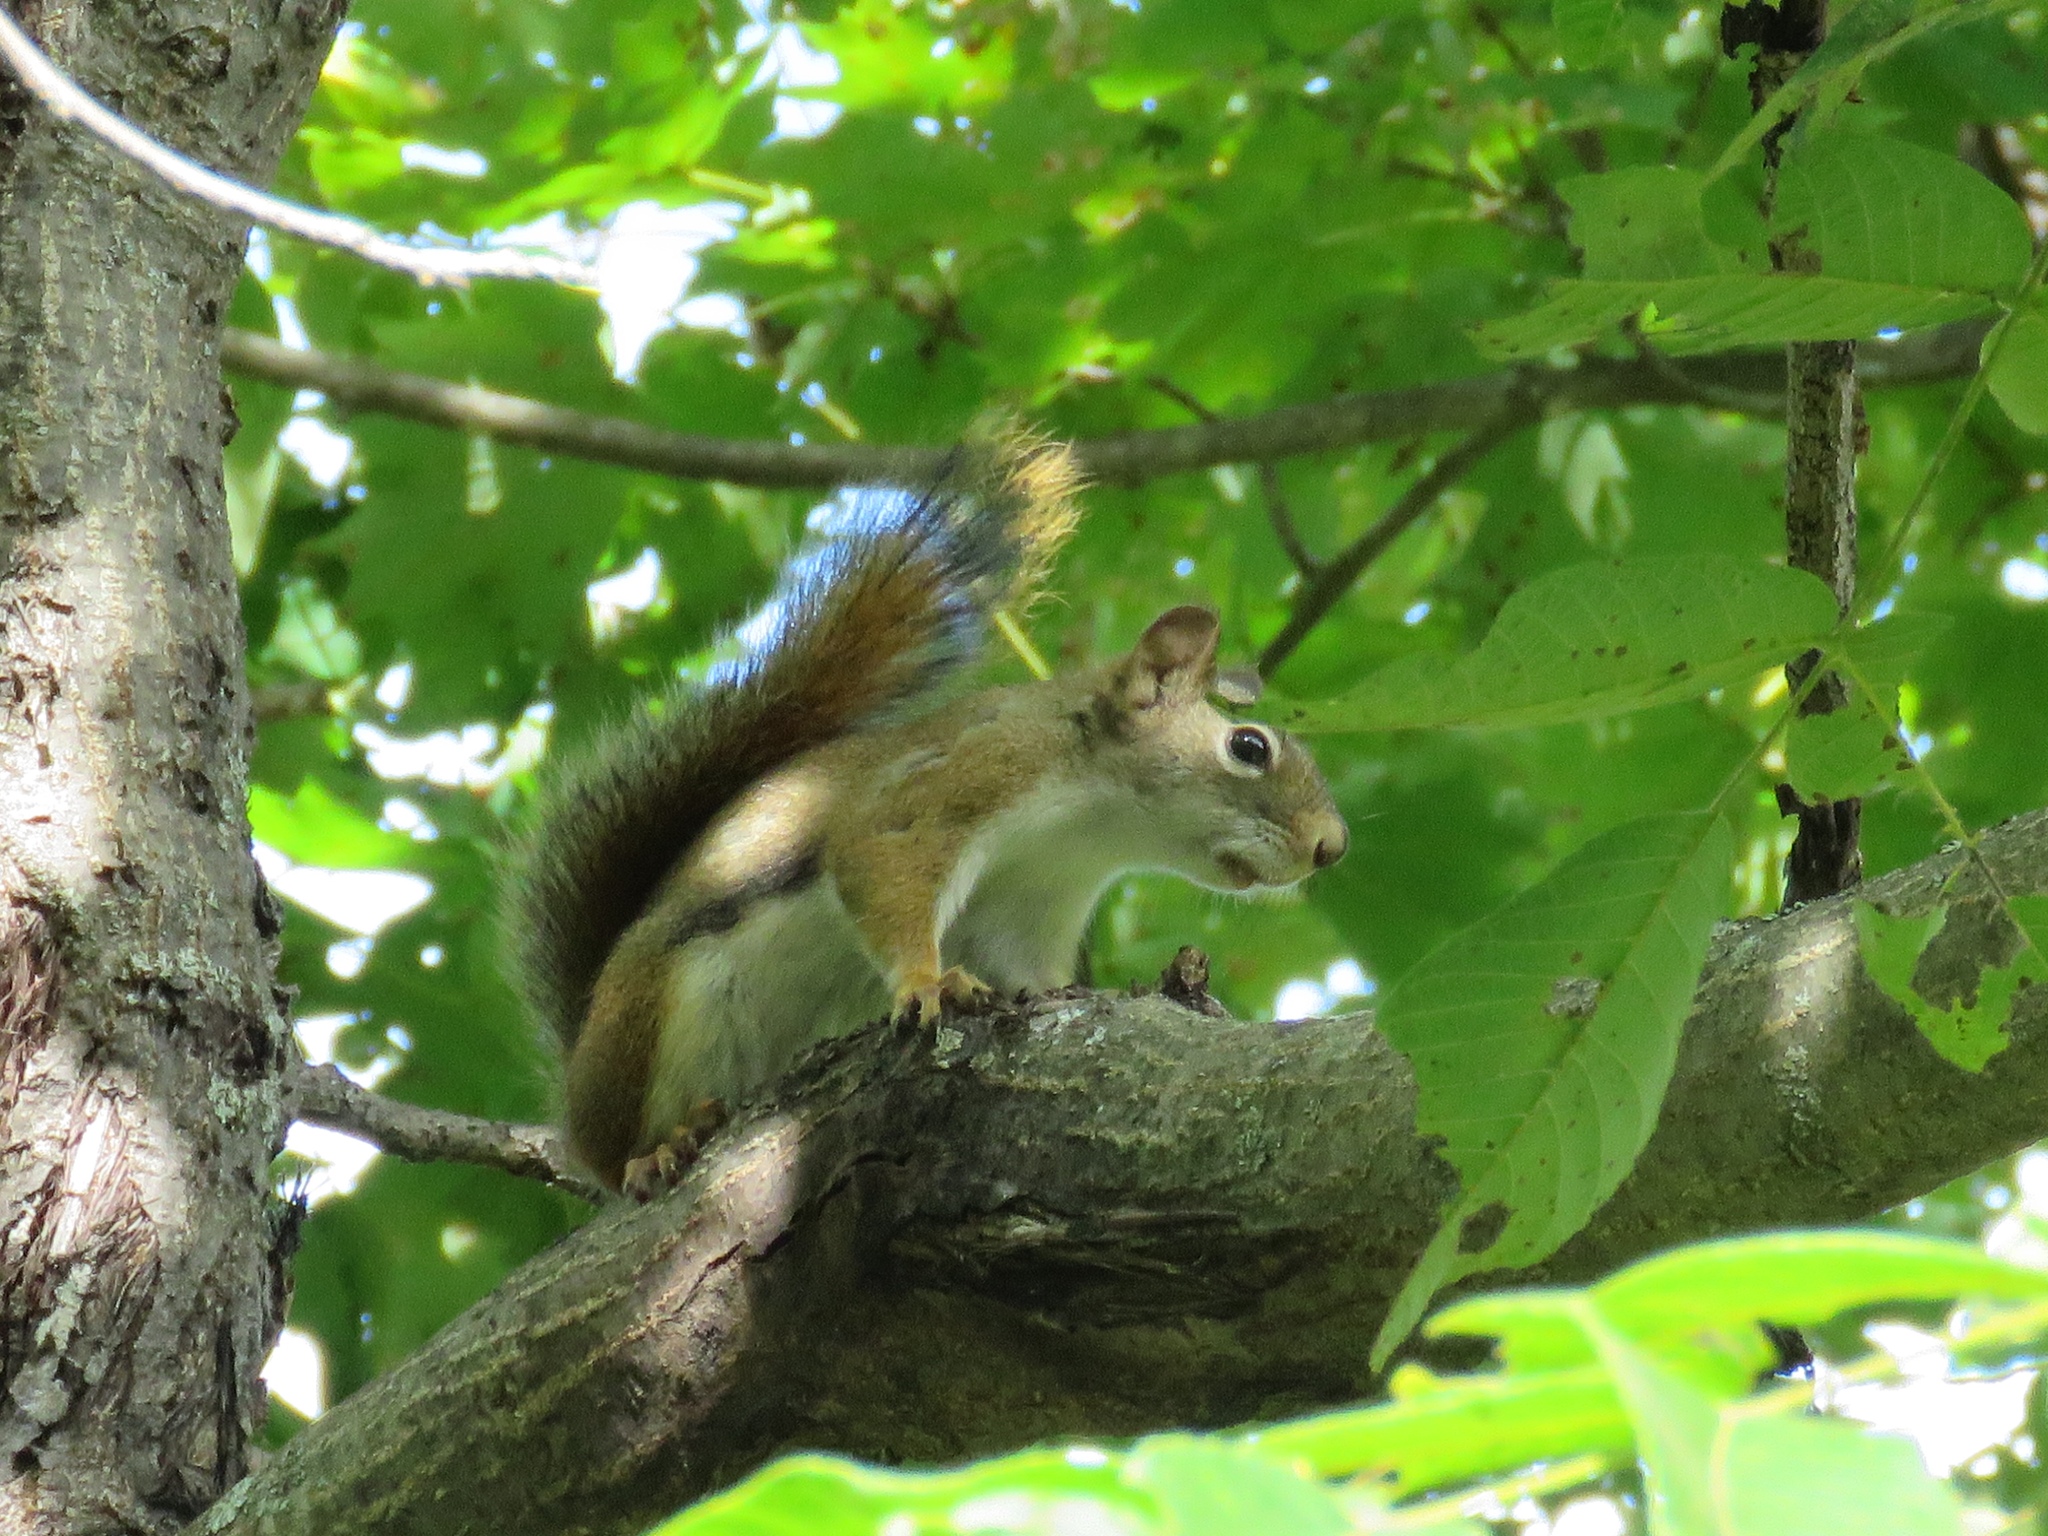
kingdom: Animalia
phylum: Chordata
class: Mammalia
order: Rodentia
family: Sciuridae
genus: Tamiasciurus
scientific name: Tamiasciurus hudsonicus
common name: Red squirrel
